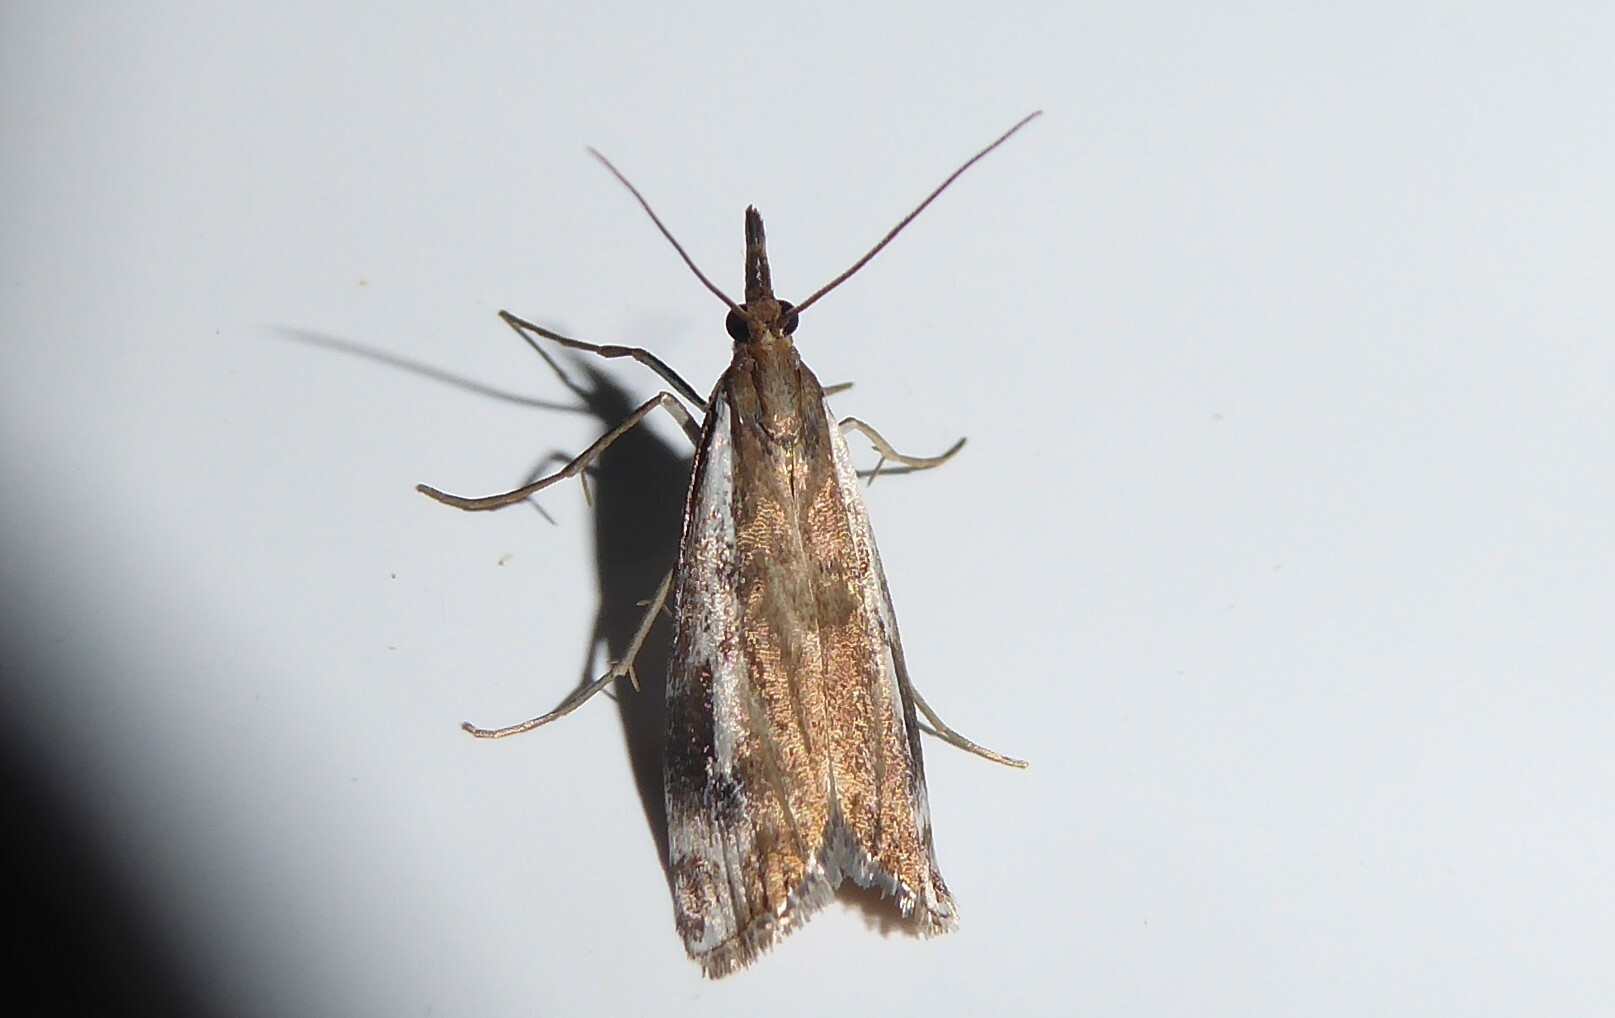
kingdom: Animalia
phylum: Arthropoda
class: Insecta
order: Lepidoptera
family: Crambidae
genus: Orocrambus
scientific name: Orocrambus vulgaris
